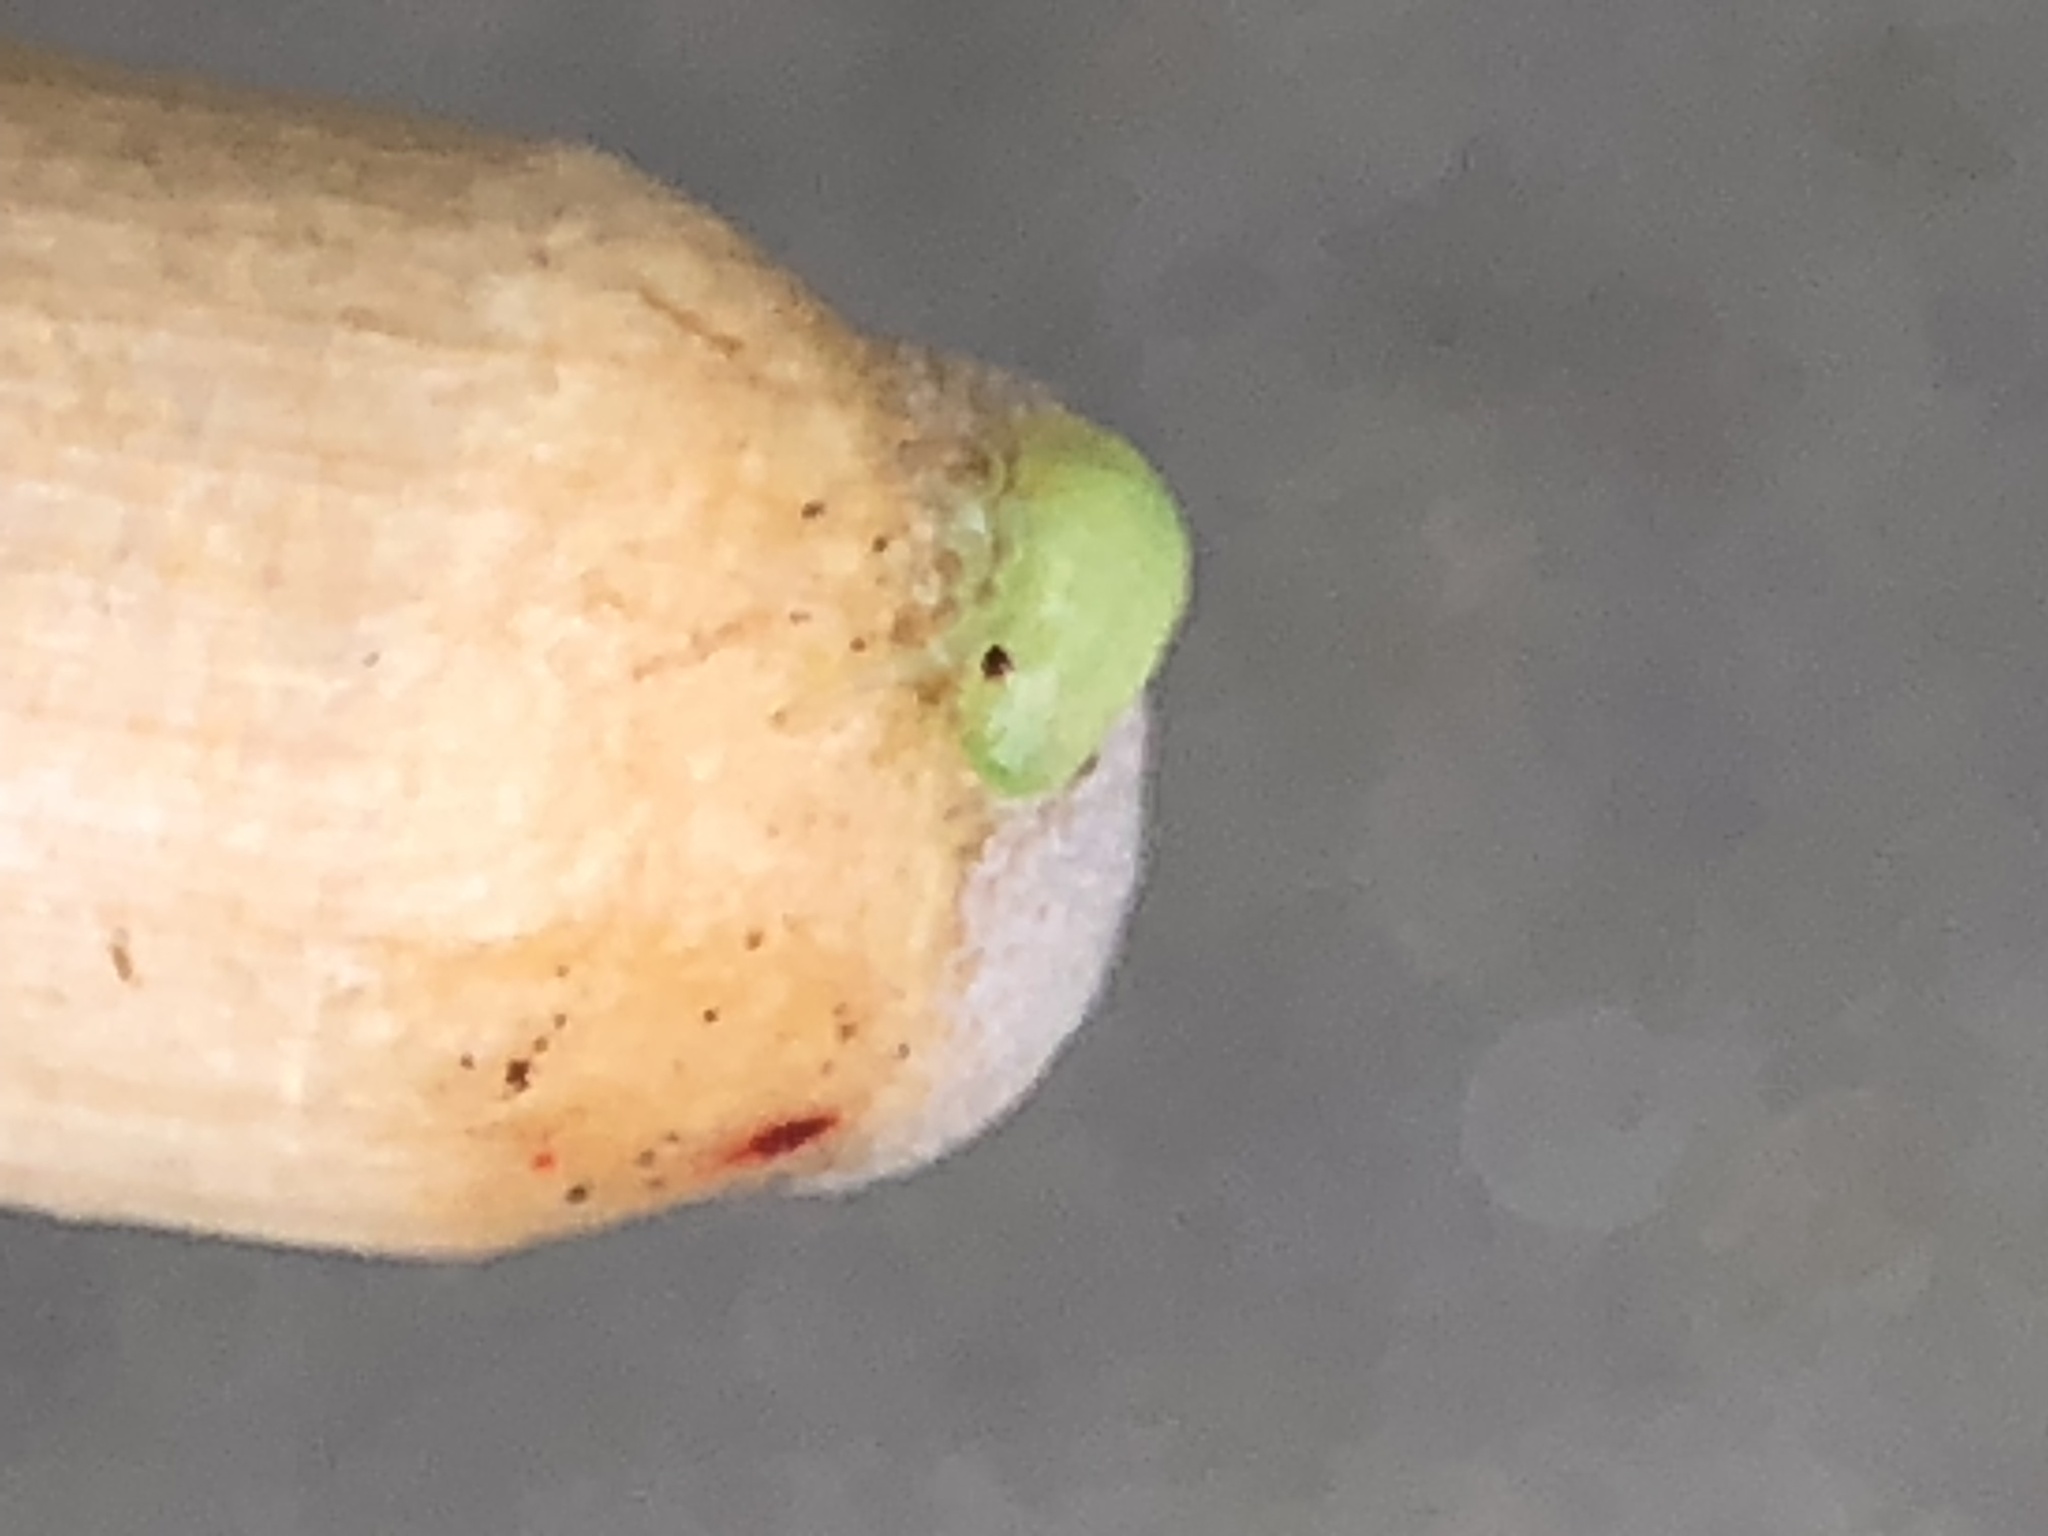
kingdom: Animalia
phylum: Arthropoda
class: Insecta
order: Hemiptera
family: Aphrophoridae
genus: Philaenus
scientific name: Philaenus spumarius
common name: Meadow spittlebug
